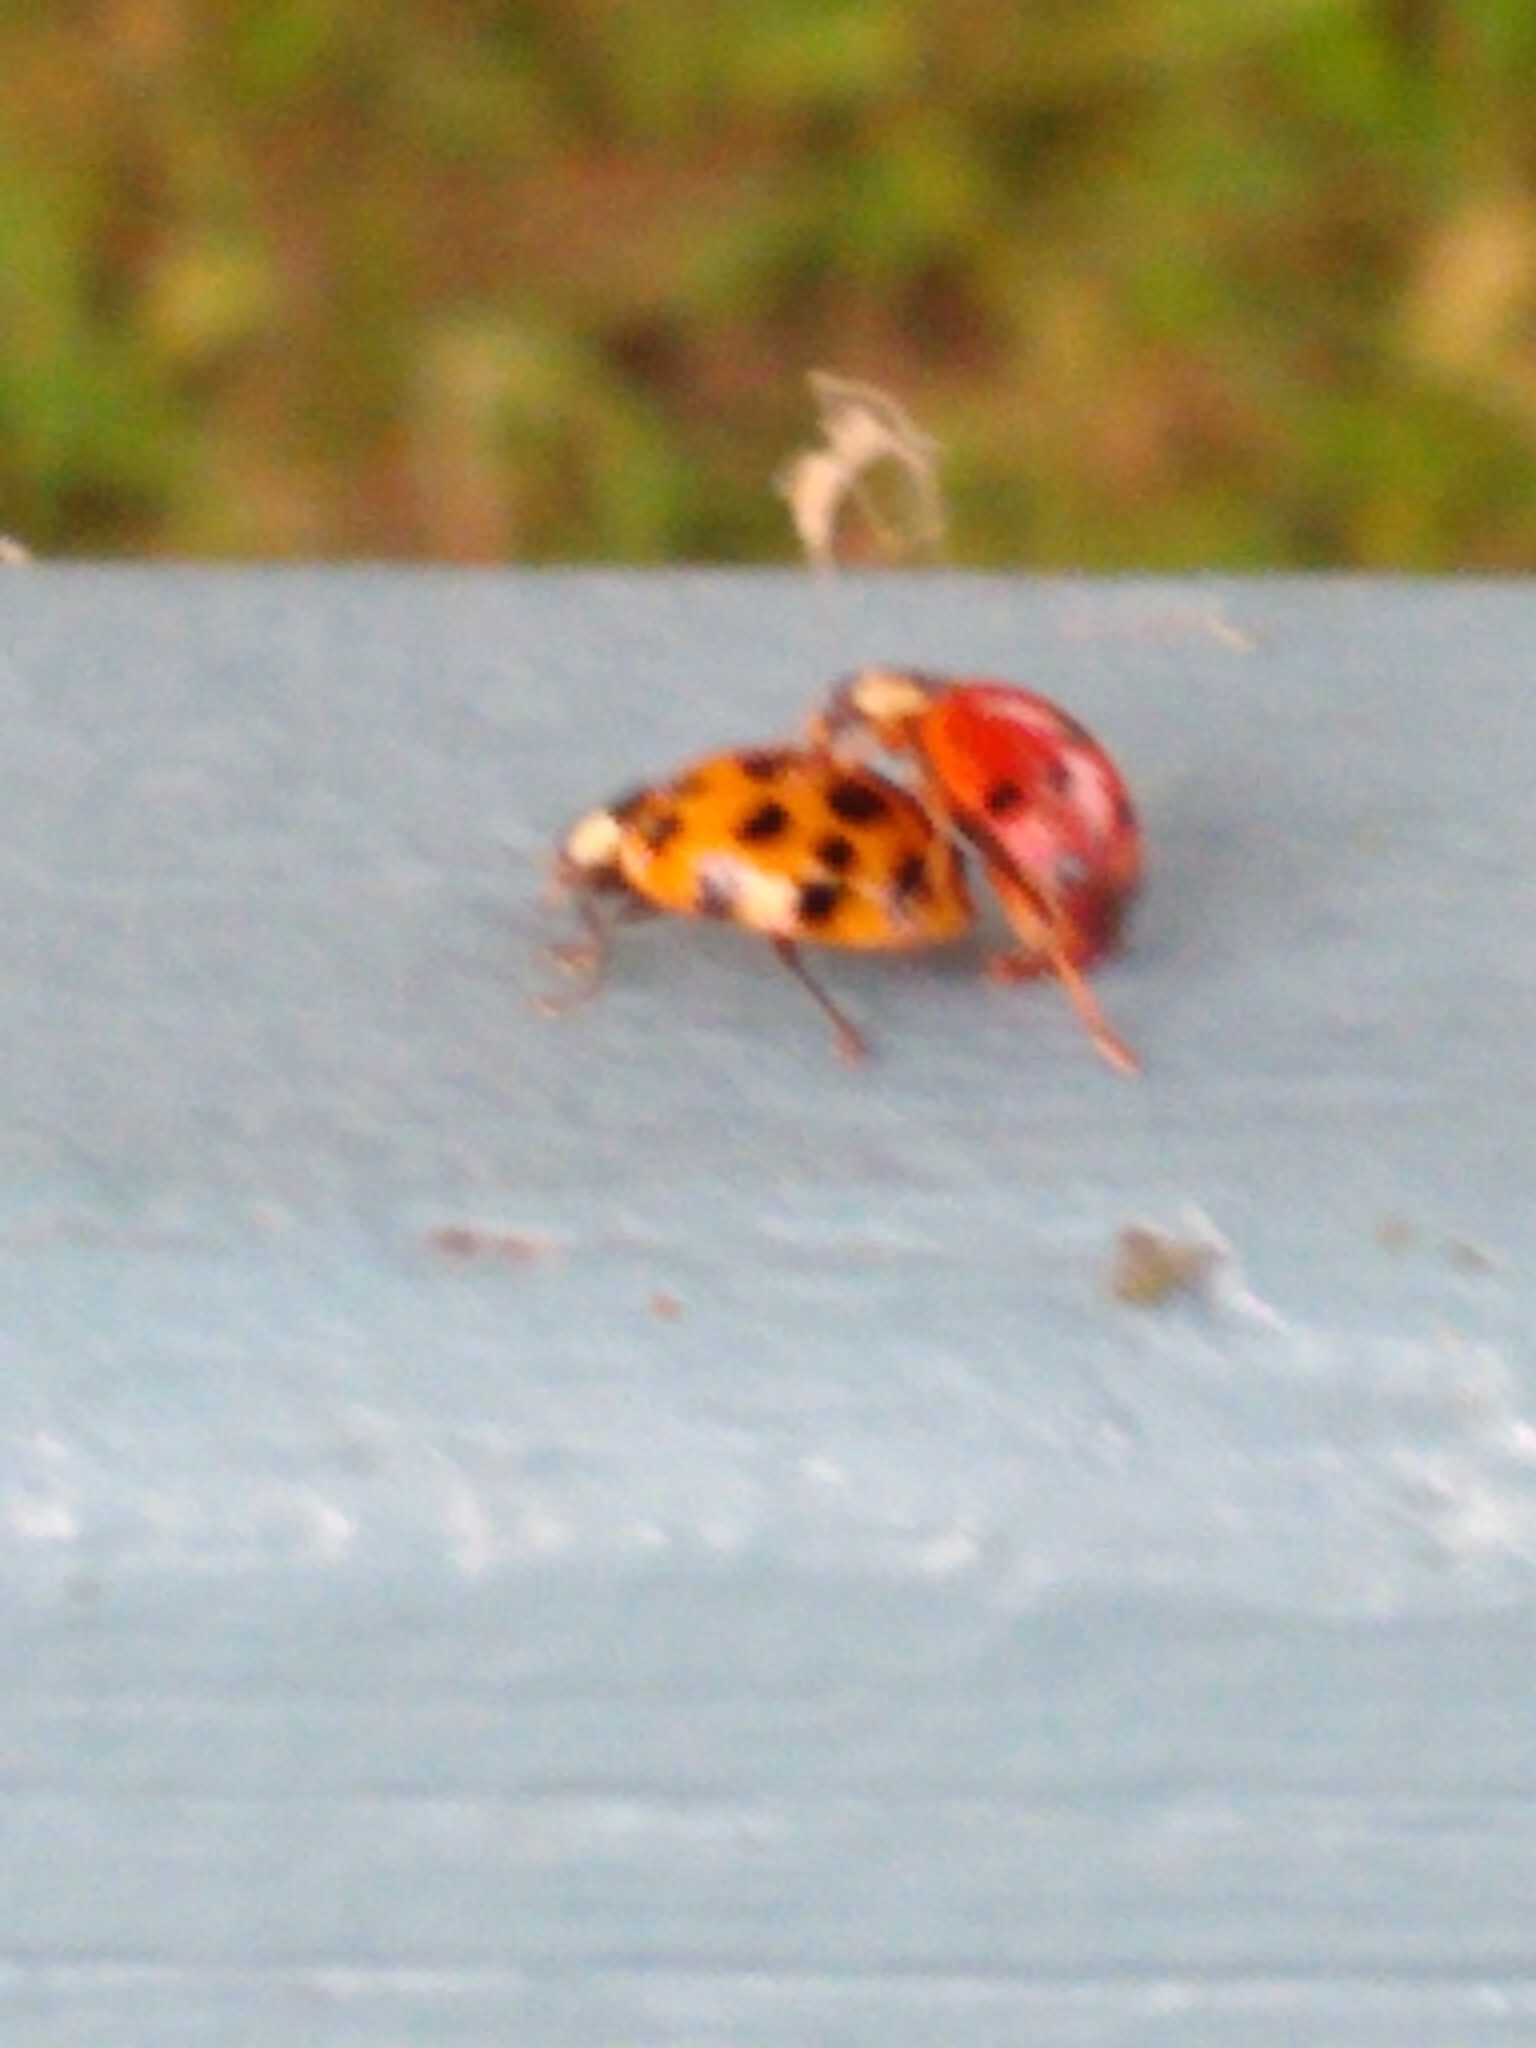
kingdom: Animalia
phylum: Arthropoda
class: Insecta
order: Coleoptera
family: Coccinellidae
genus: Harmonia
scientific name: Harmonia axyridis
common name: Harlequin ladybird
